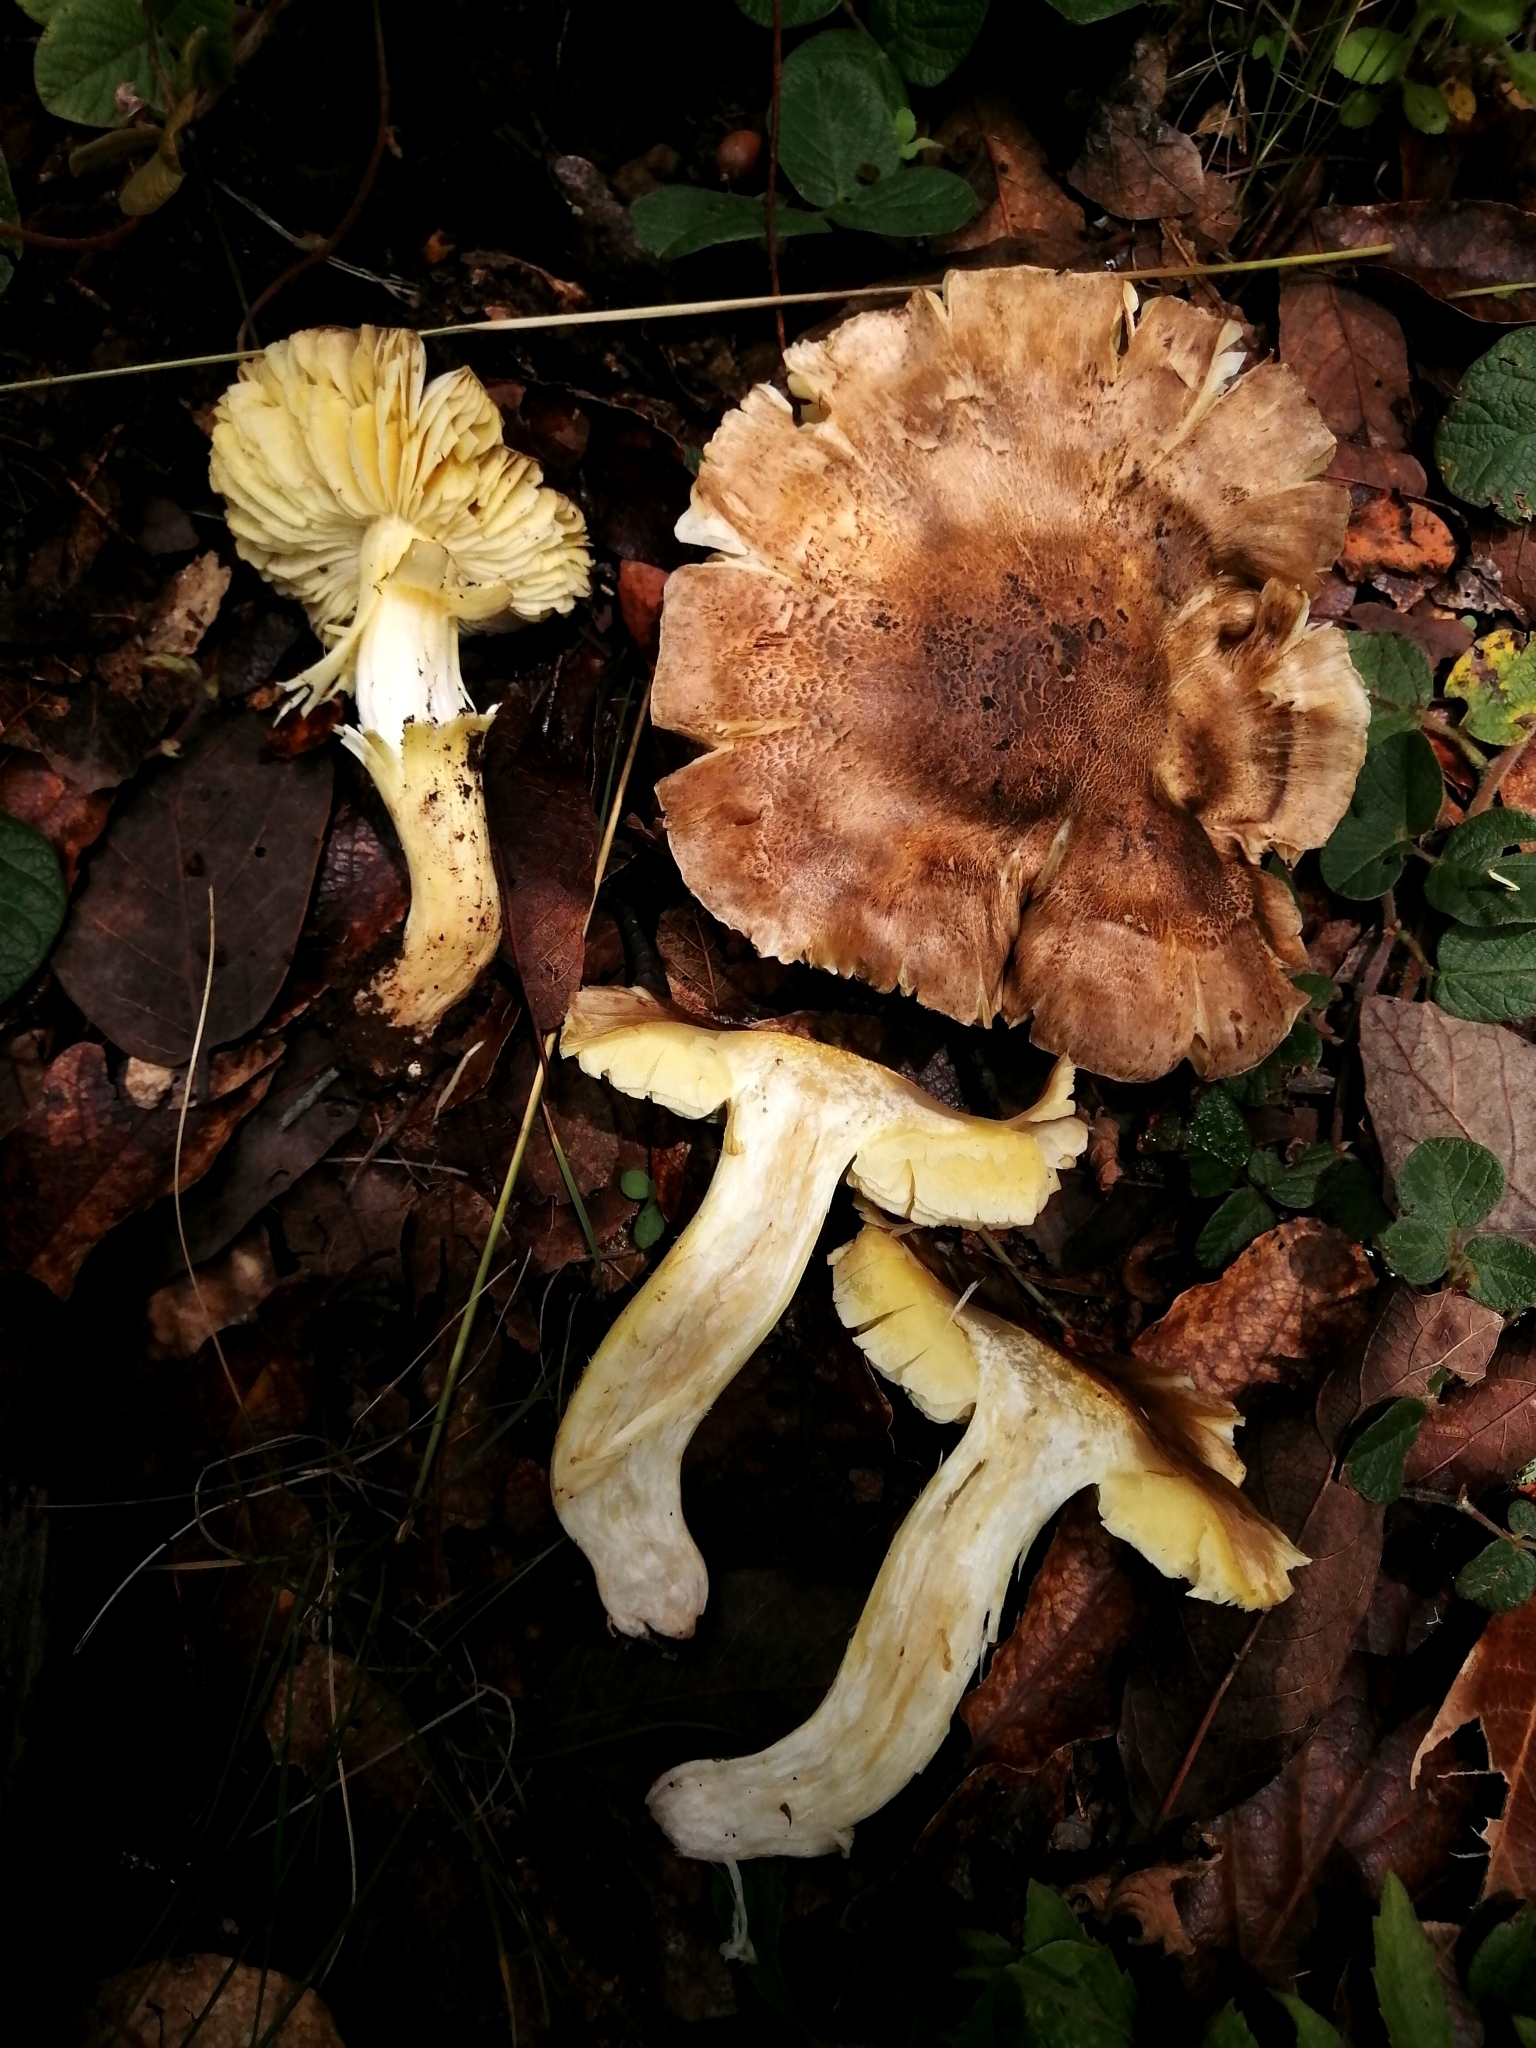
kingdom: Fungi
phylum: Basidiomycota
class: Agaricomycetes
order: Agaricales
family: Tricholomataceae
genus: Tricholoma
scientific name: Tricholoma equestre
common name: Yellow knight
